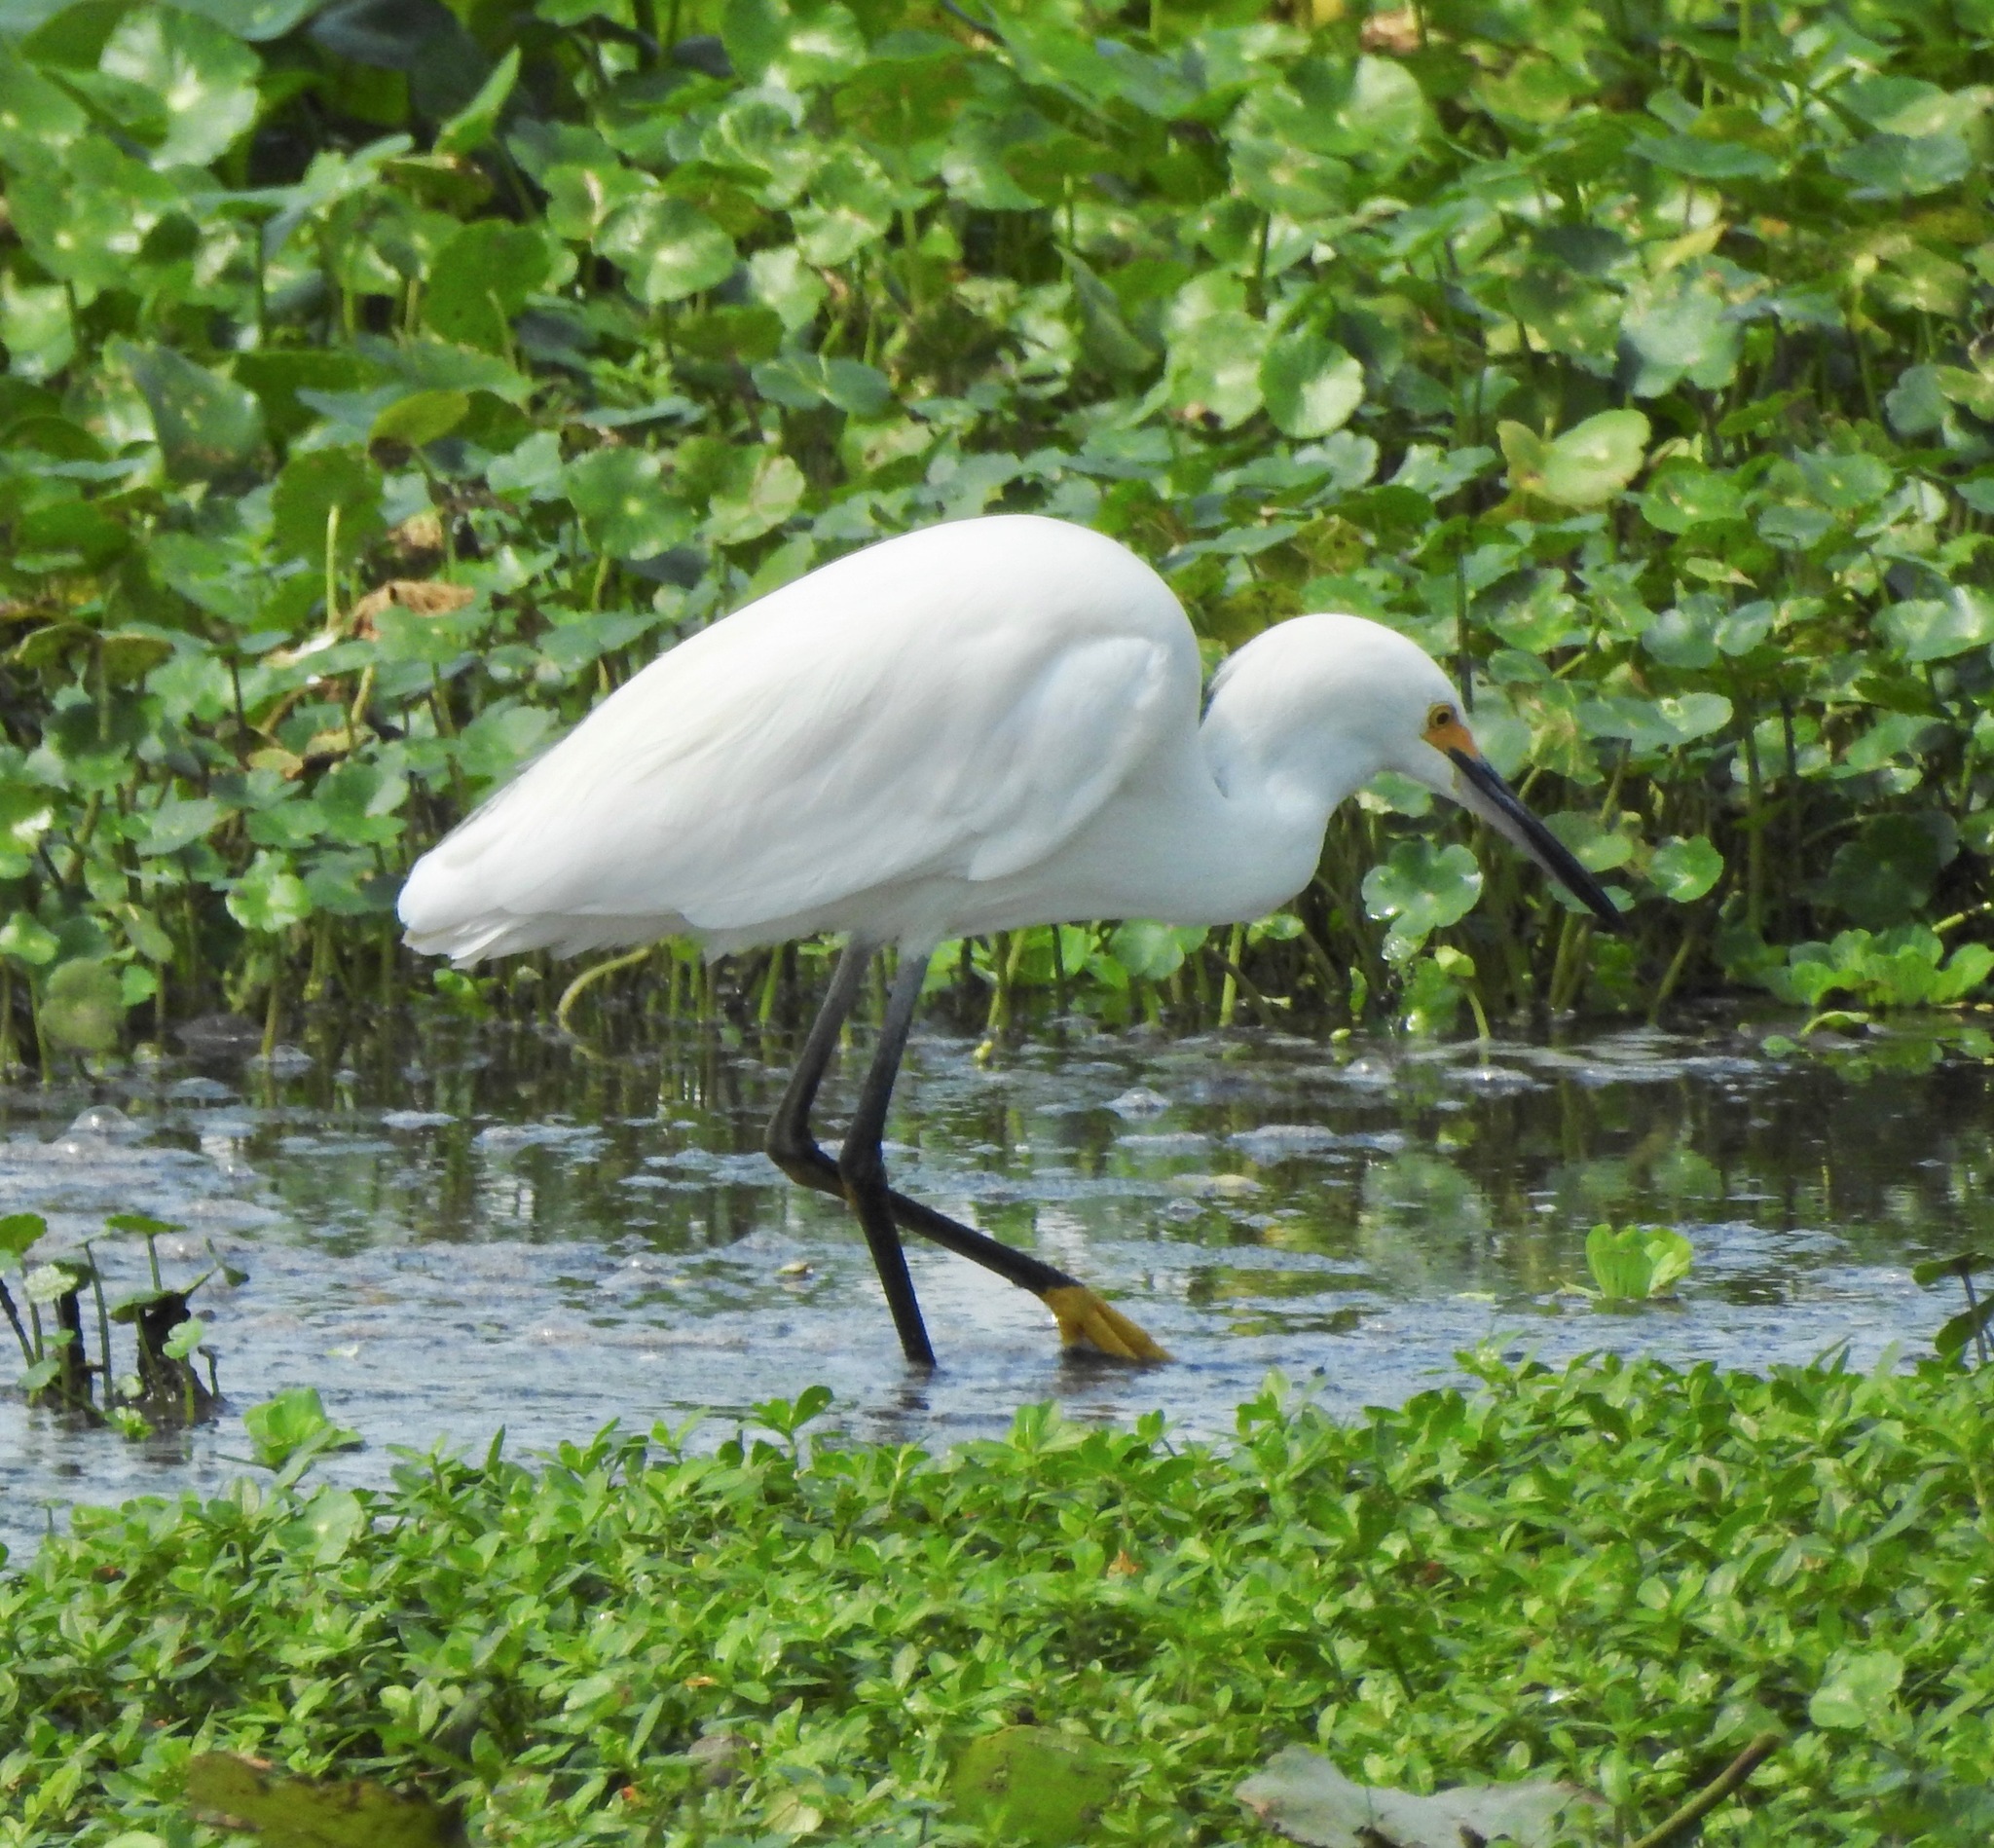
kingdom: Animalia
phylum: Chordata
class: Aves
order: Pelecaniformes
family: Ardeidae
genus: Egretta
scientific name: Egretta thula
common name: Snowy egret
